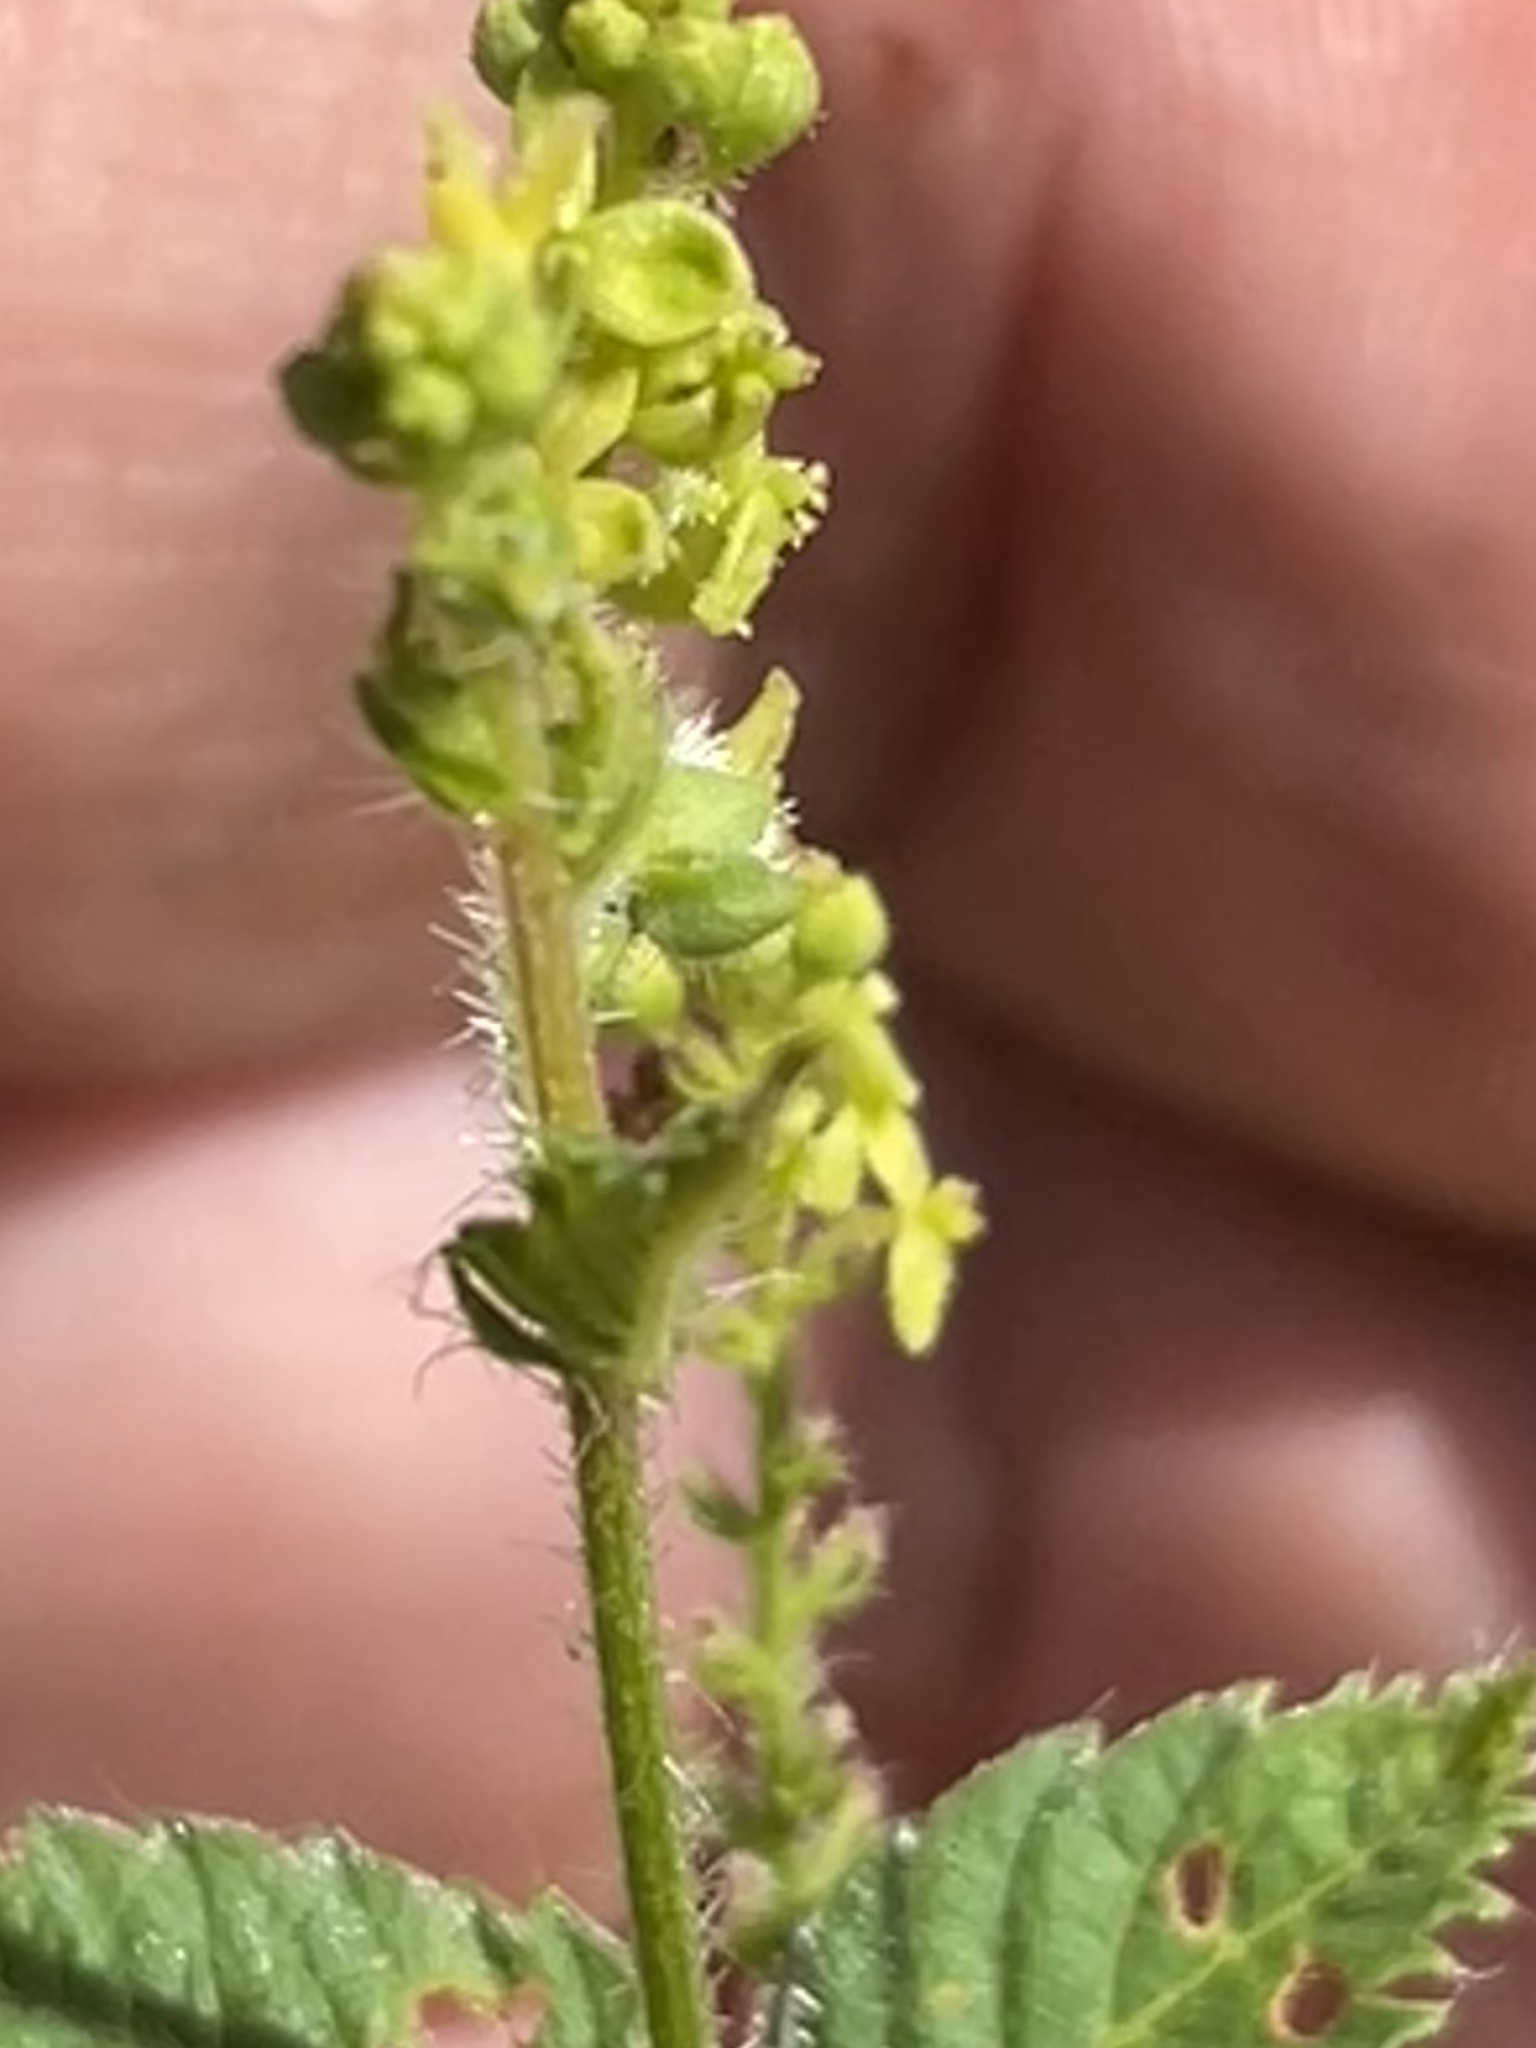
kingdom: Plantae
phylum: Tracheophyta
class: Magnoliopsida
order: Malpighiales
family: Euphorbiaceae
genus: Tragia
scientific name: Tragia urticifolia
